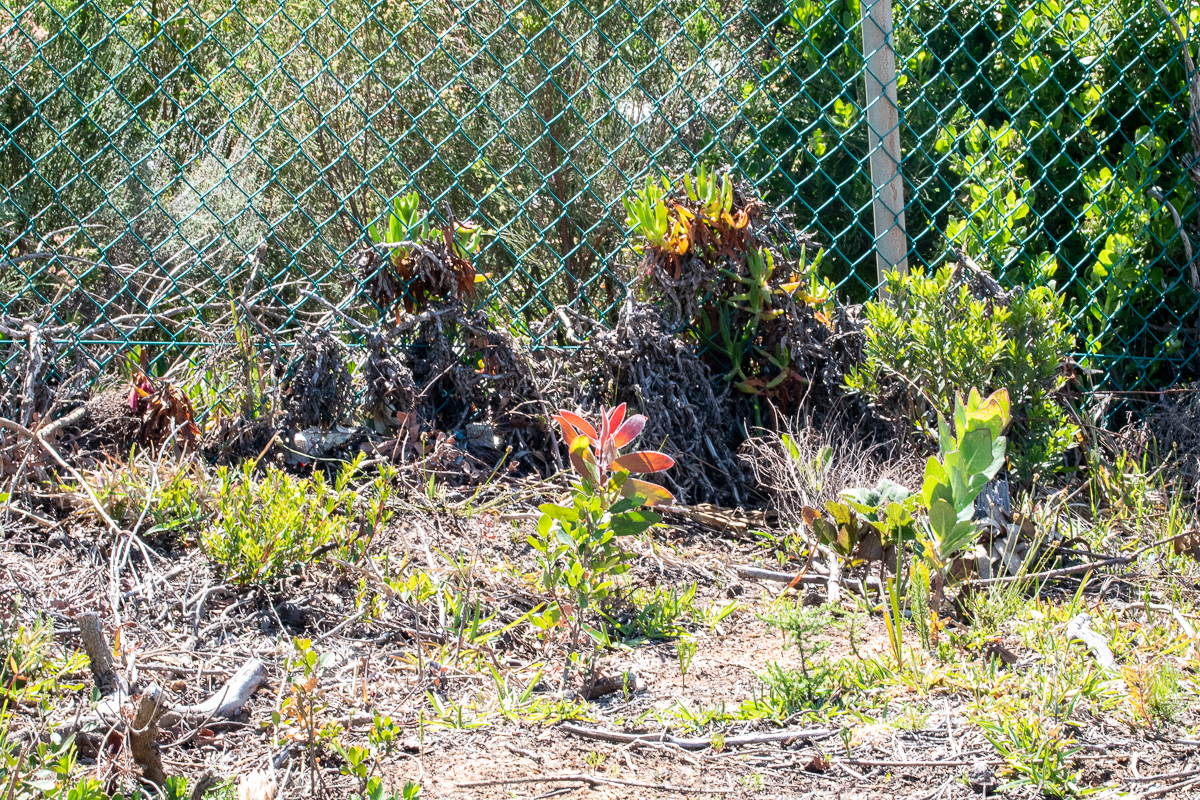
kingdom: Plantae
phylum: Tracheophyta
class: Magnoliopsida
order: Proteales
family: Proteaceae
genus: Protea
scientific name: Protea mundii
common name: Forest sugarbush
